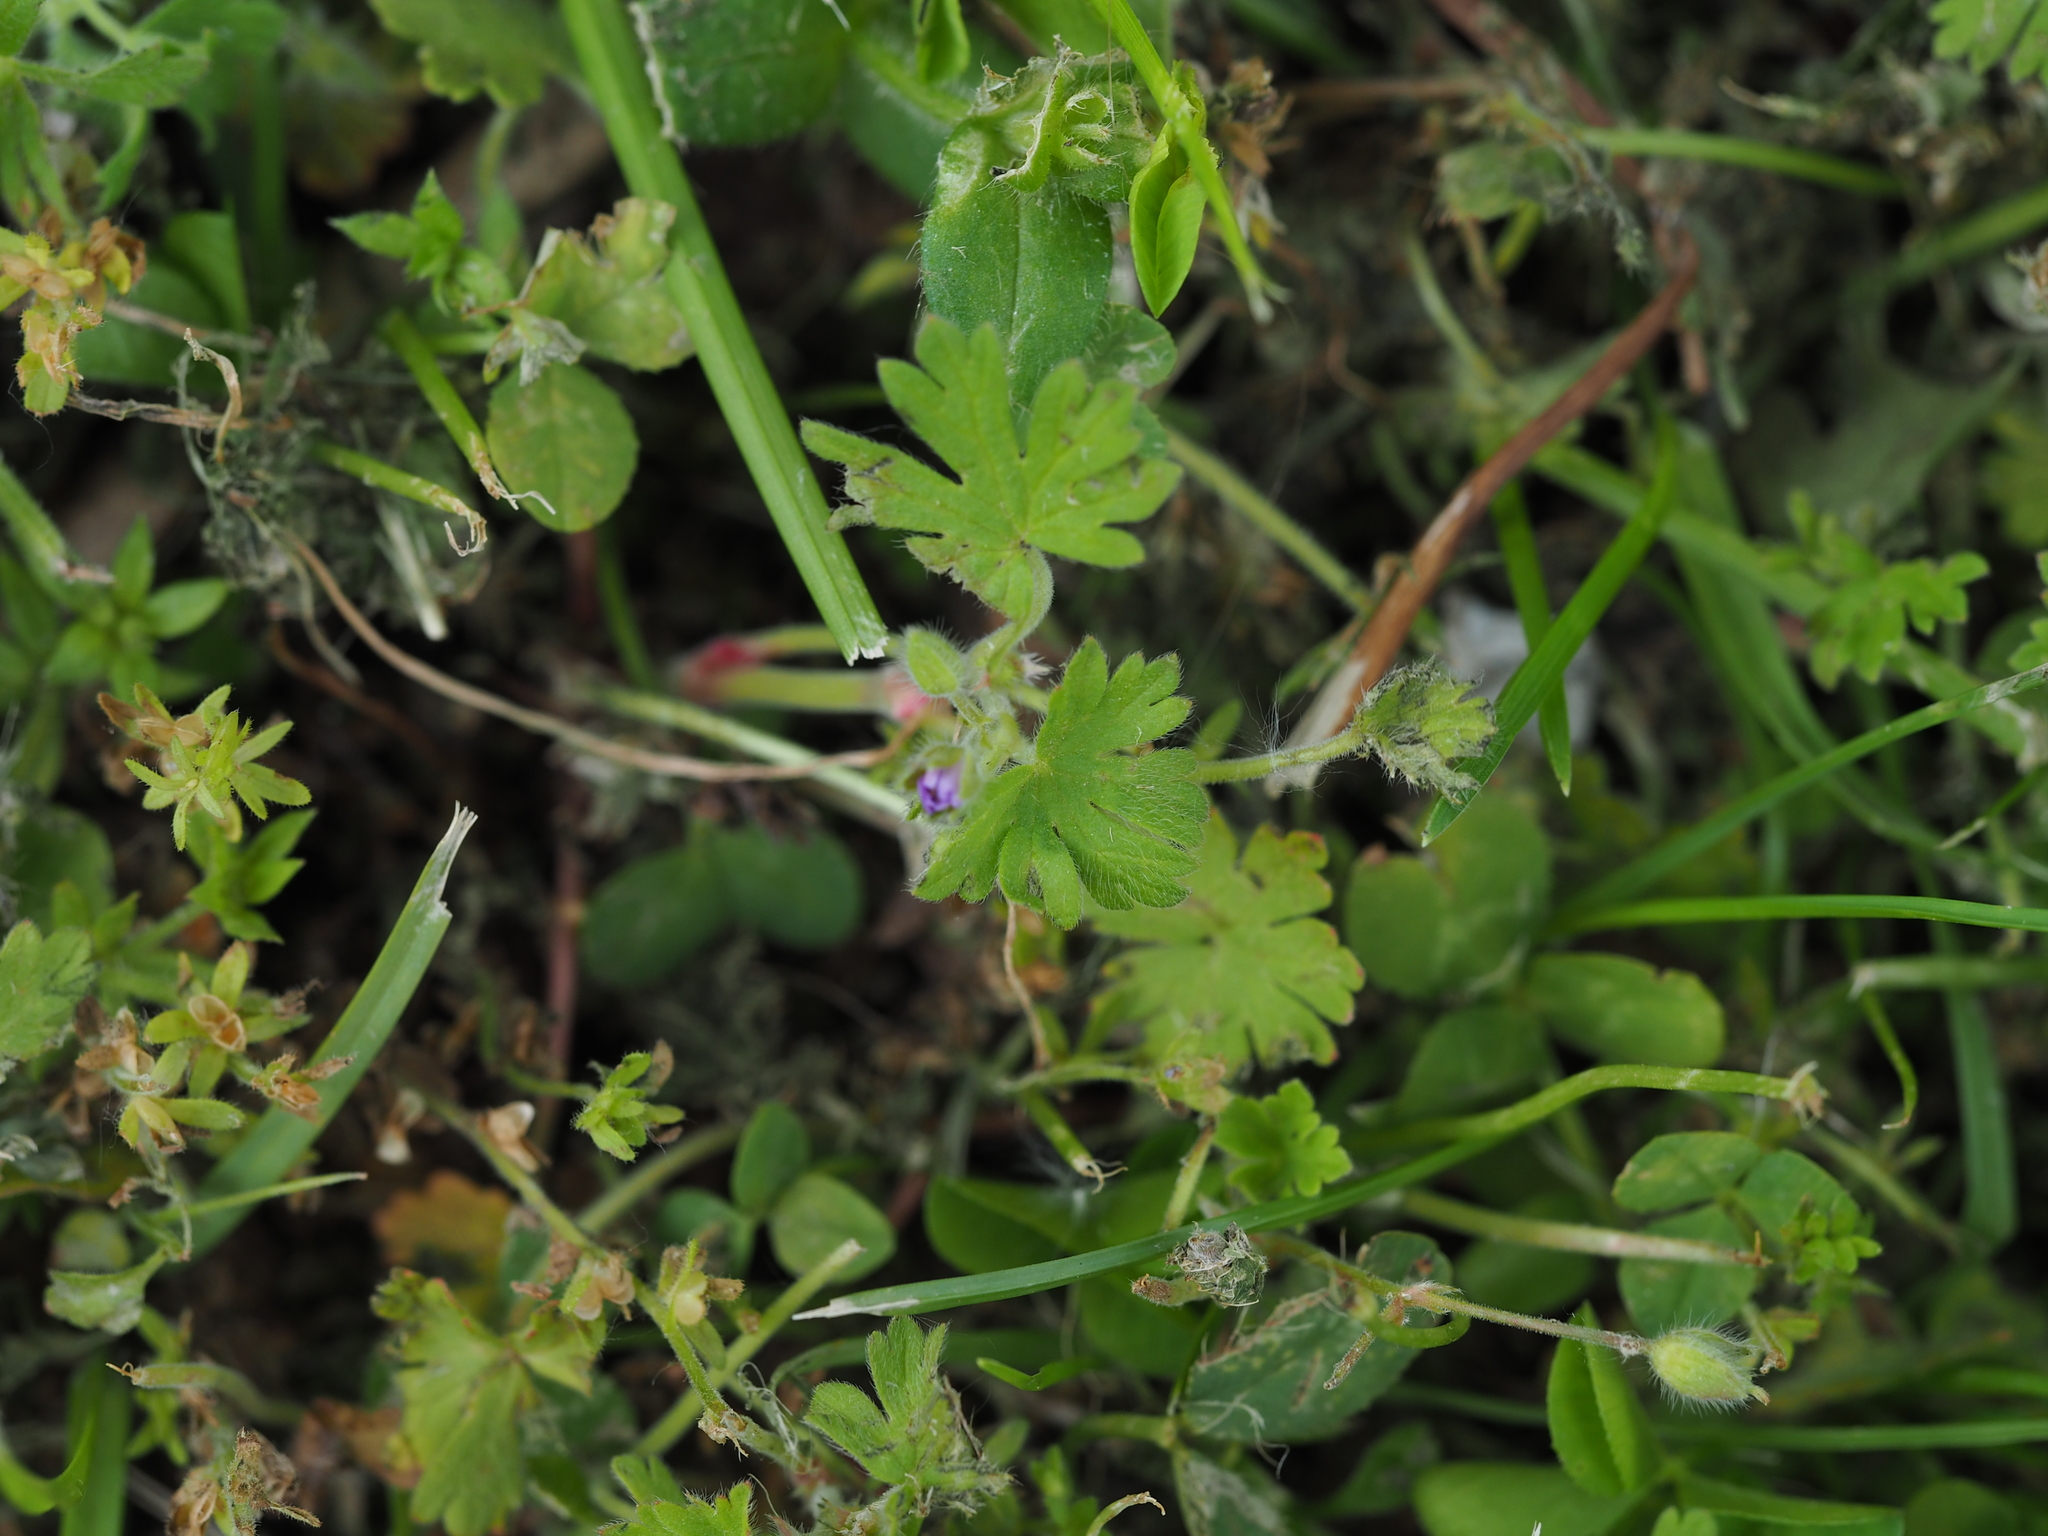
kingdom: Plantae
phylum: Tracheophyta
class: Magnoliopsida
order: Geraniales
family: Geraniaceae
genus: Geranium
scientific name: Geranium pusillum
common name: Small geranium
